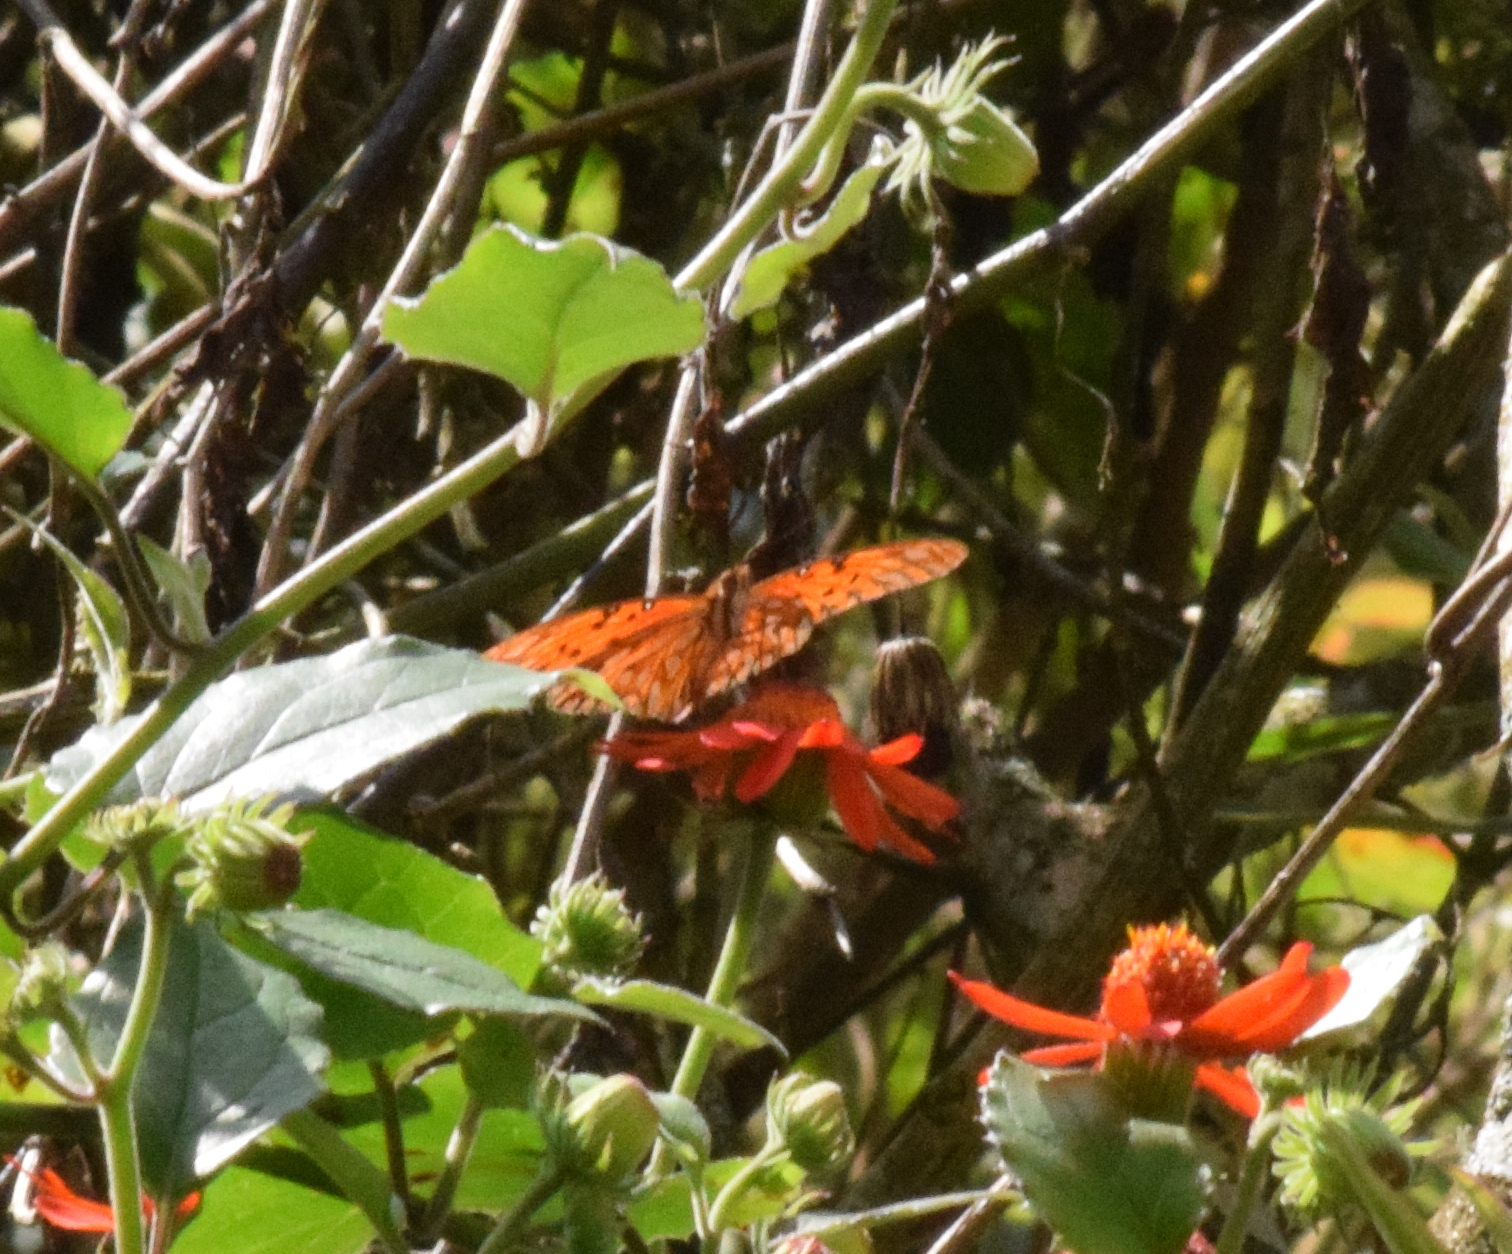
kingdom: Animalia
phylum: Arthropoda
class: Insecta
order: Lepidoptera
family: Nymphalidae
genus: Dione
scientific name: Dione vanillae
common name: Gulf fritillary
